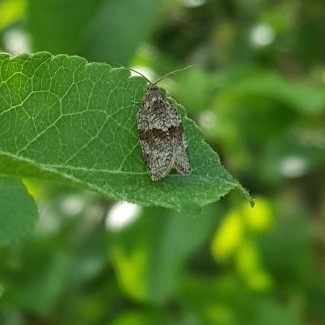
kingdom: Animalia
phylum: Arthropoda
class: Insecta
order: Lepidoptera
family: Tortricidae
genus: Syndemis
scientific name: Syndemis musculana
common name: Dark-barred twist
